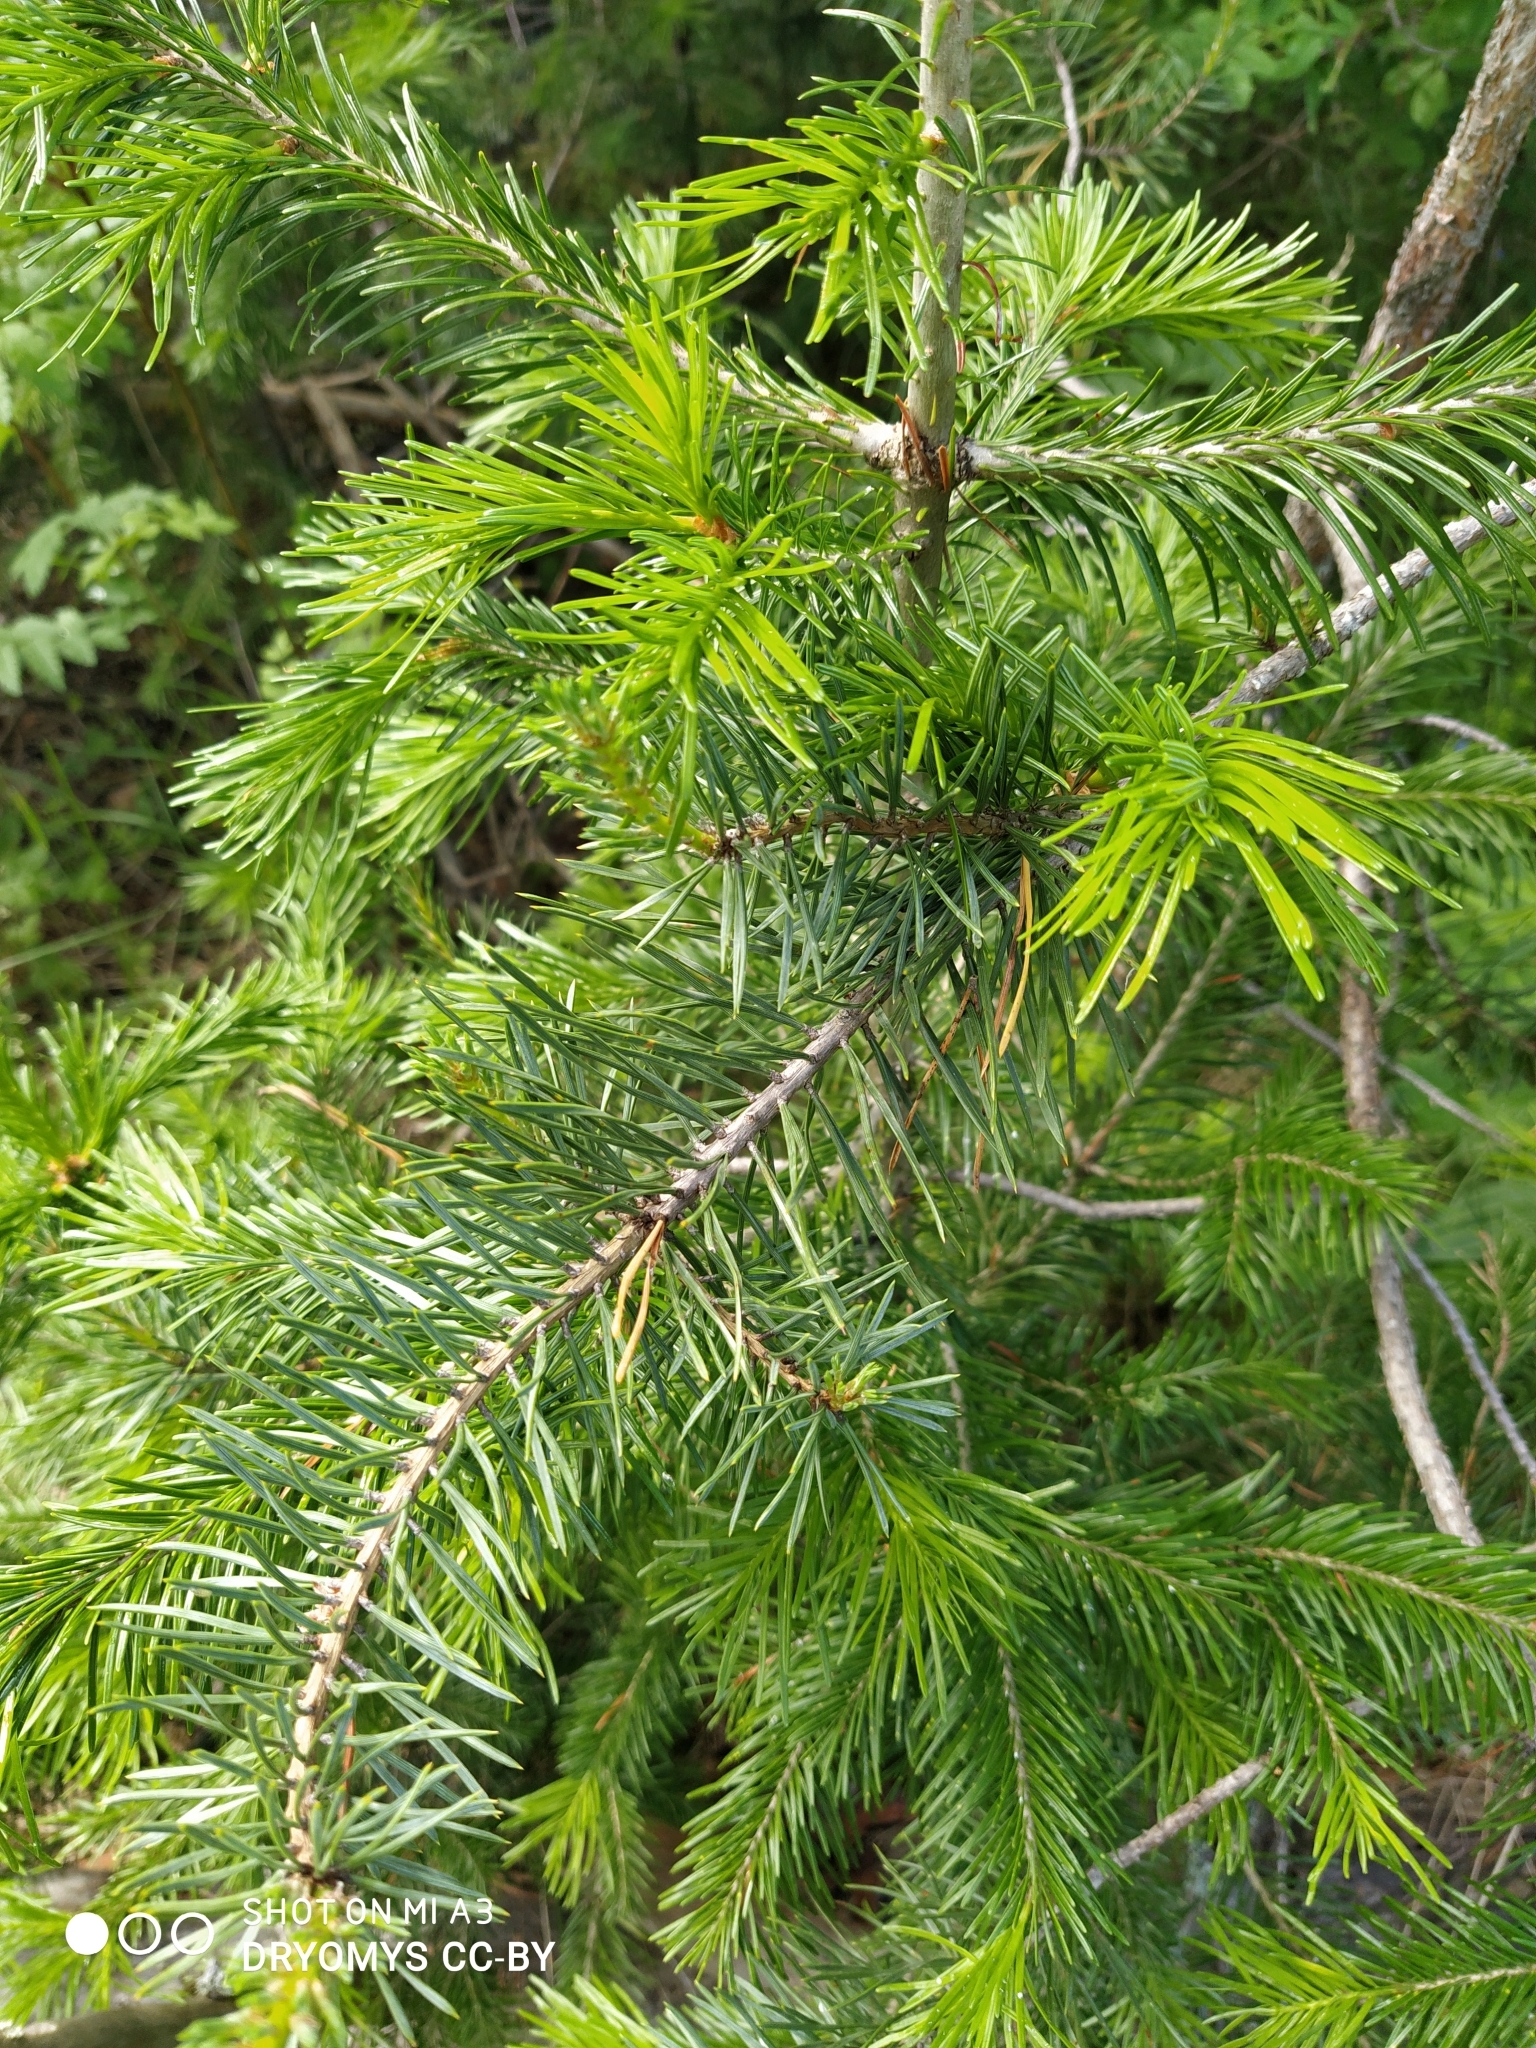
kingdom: Plantae
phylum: Tracheophyta
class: Pinopsida
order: Pinales
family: Pinaceae
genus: Abies
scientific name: Abies sibirica
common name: Siberian fir
